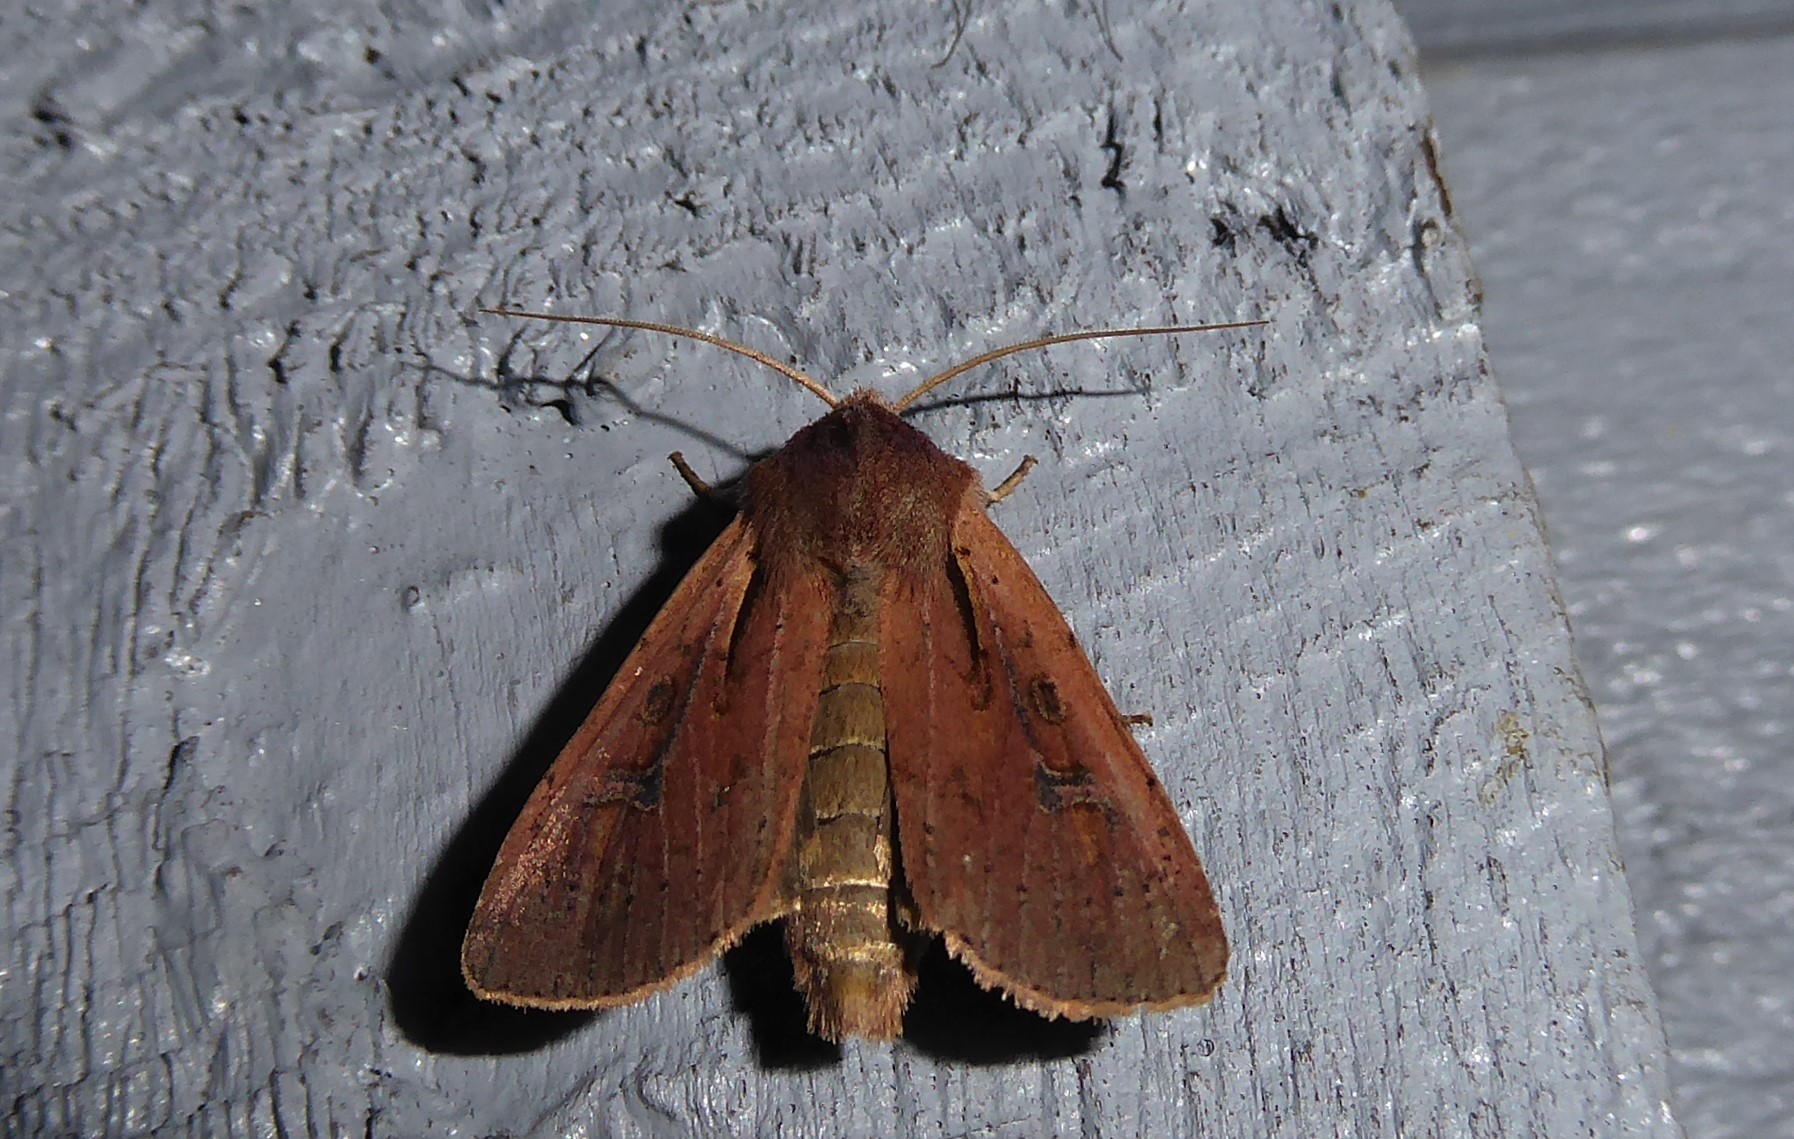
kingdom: Animalia
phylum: Arthropoda
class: Insecta
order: Lepidoptera
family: Noctuidae
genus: Ichneutica
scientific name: Ichneutica atristriga
